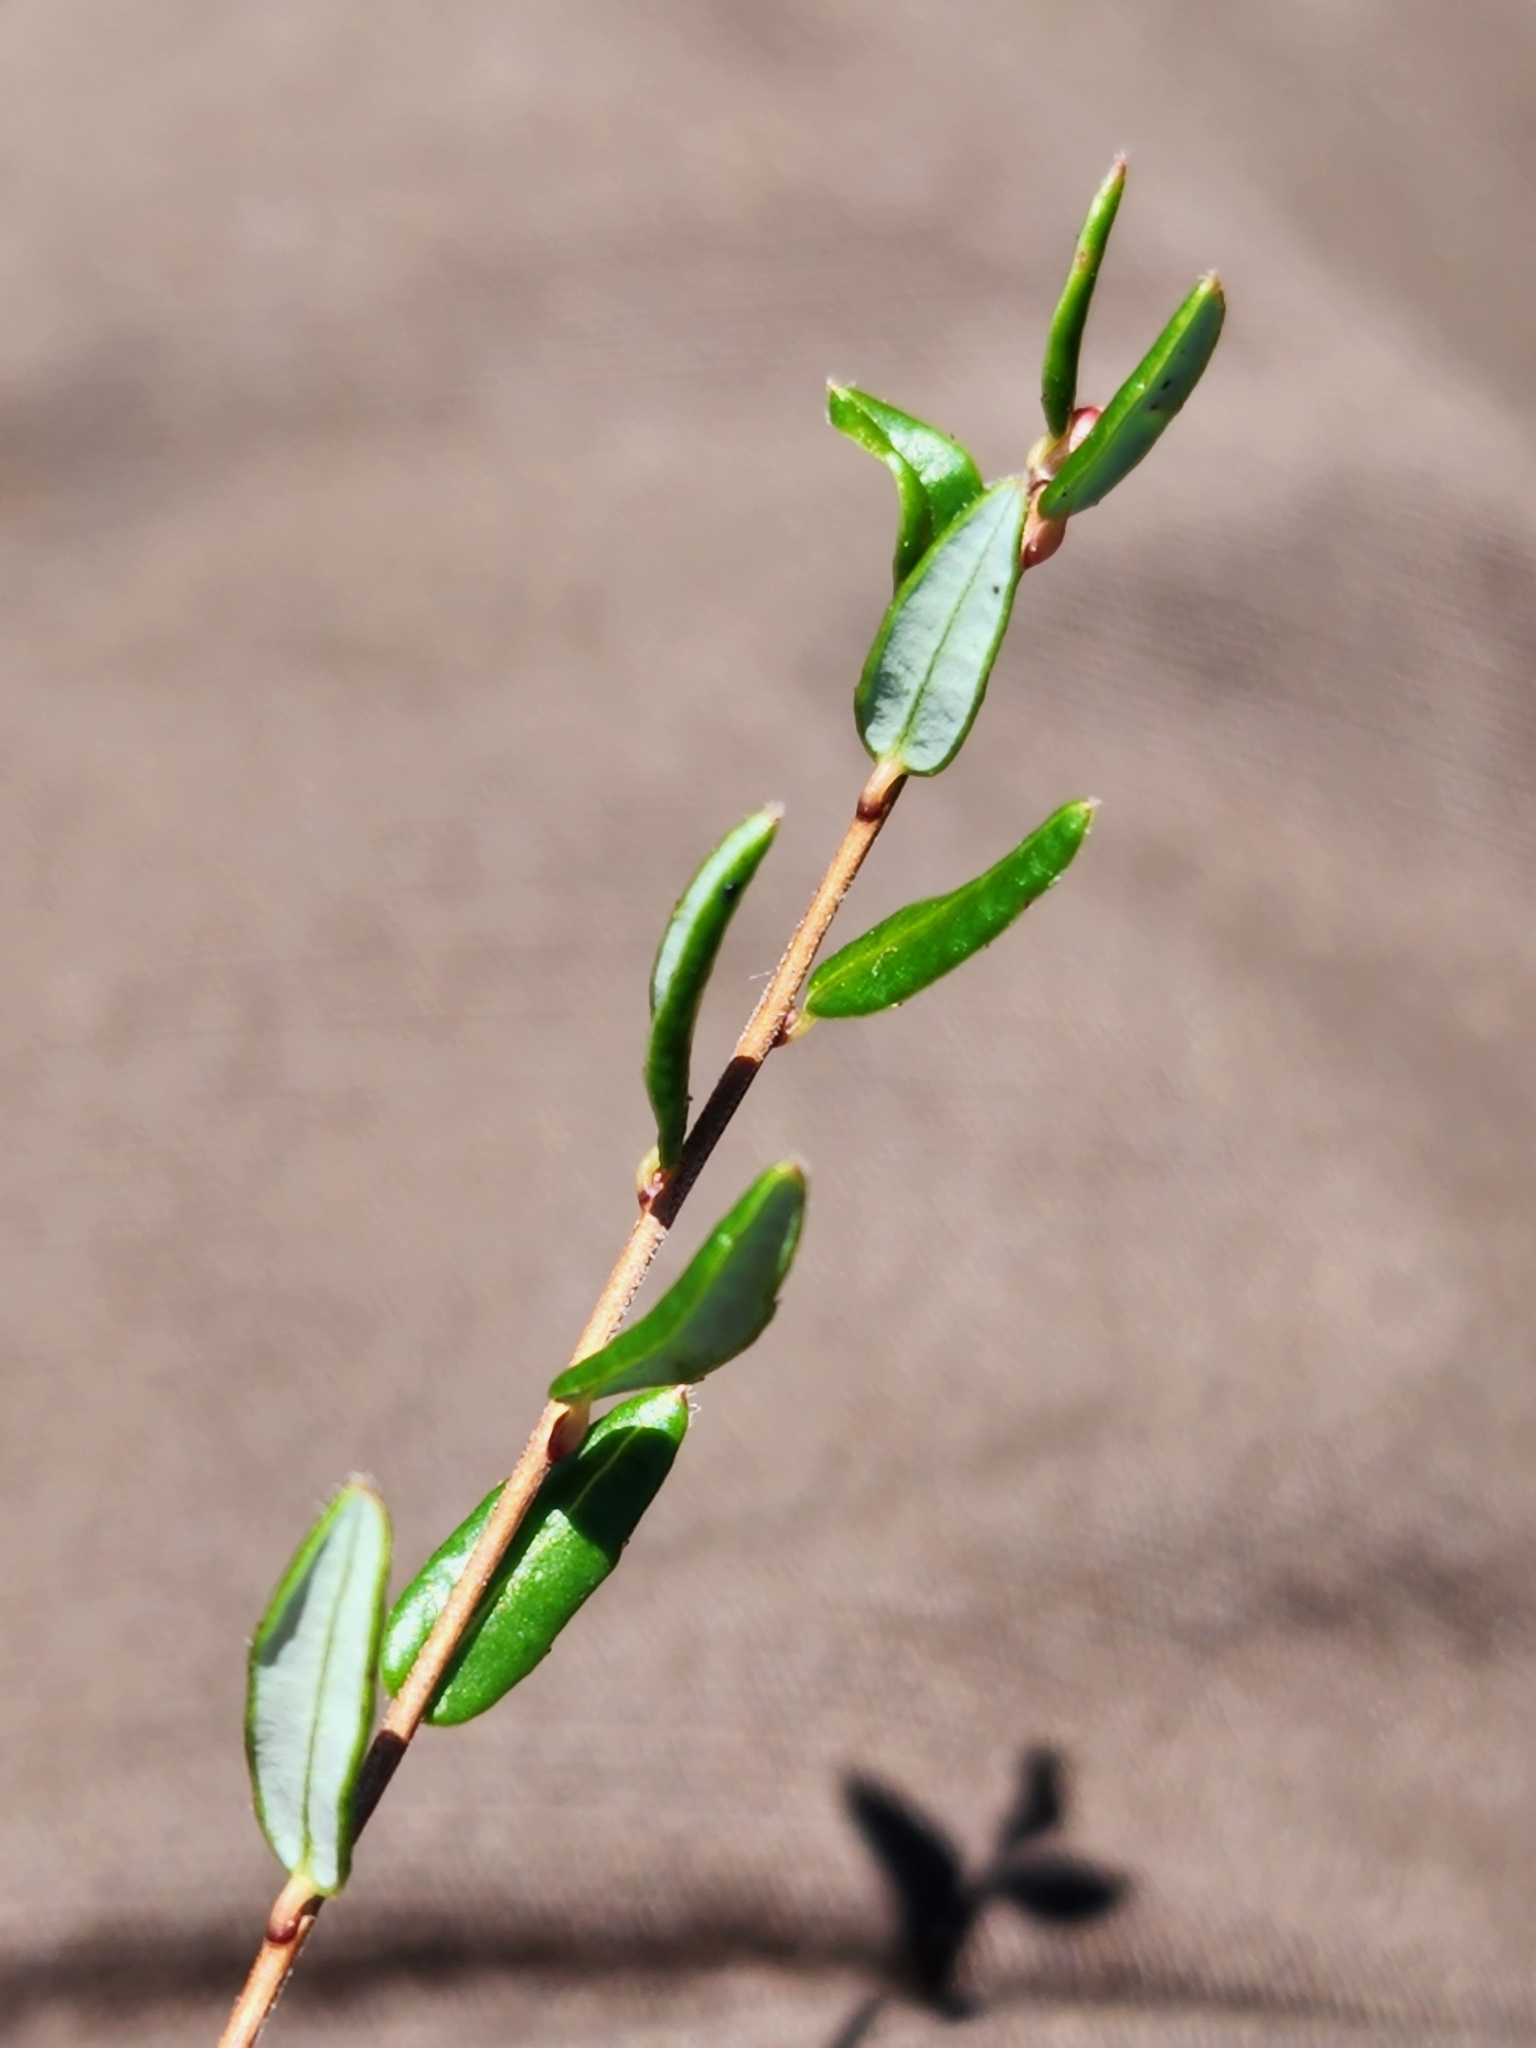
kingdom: Plantae
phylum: Tracheophyta
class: Magnoliopsida
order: Ericales
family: Ericaceae
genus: Vaccinium
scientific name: Vaccinium oxycoccos
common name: Cranberry
